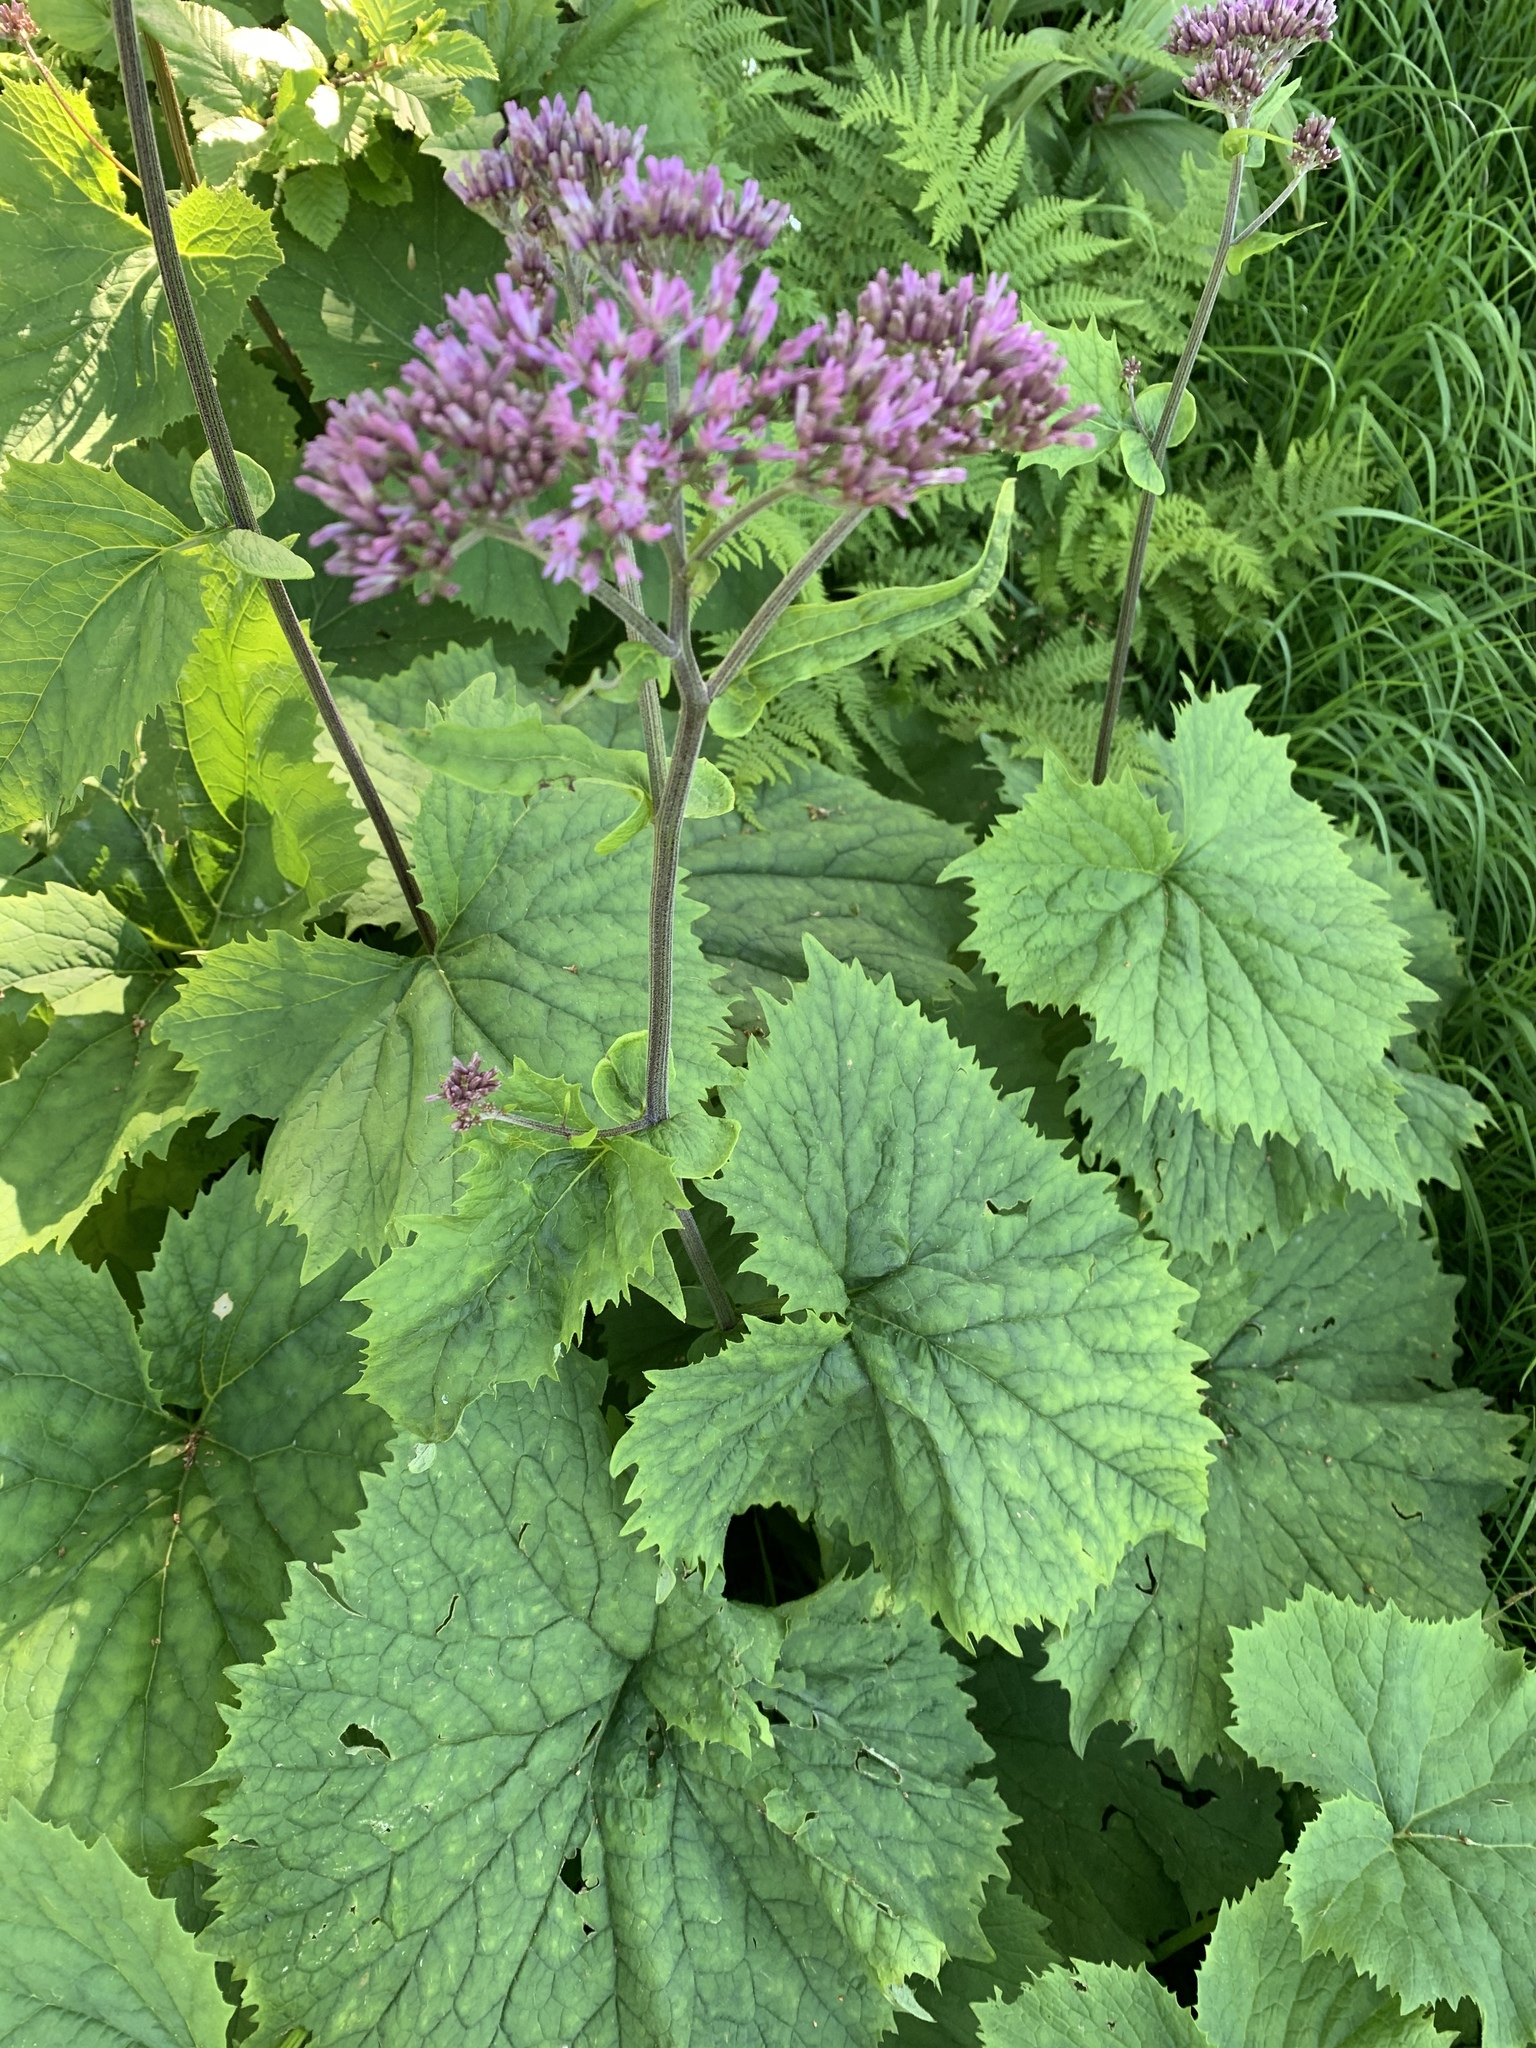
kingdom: Plantae
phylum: Tracheophyta
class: Magnoliopsida
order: Asterales
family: Asteraceae
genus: Adenostyles
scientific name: Adenostyles alliariae
